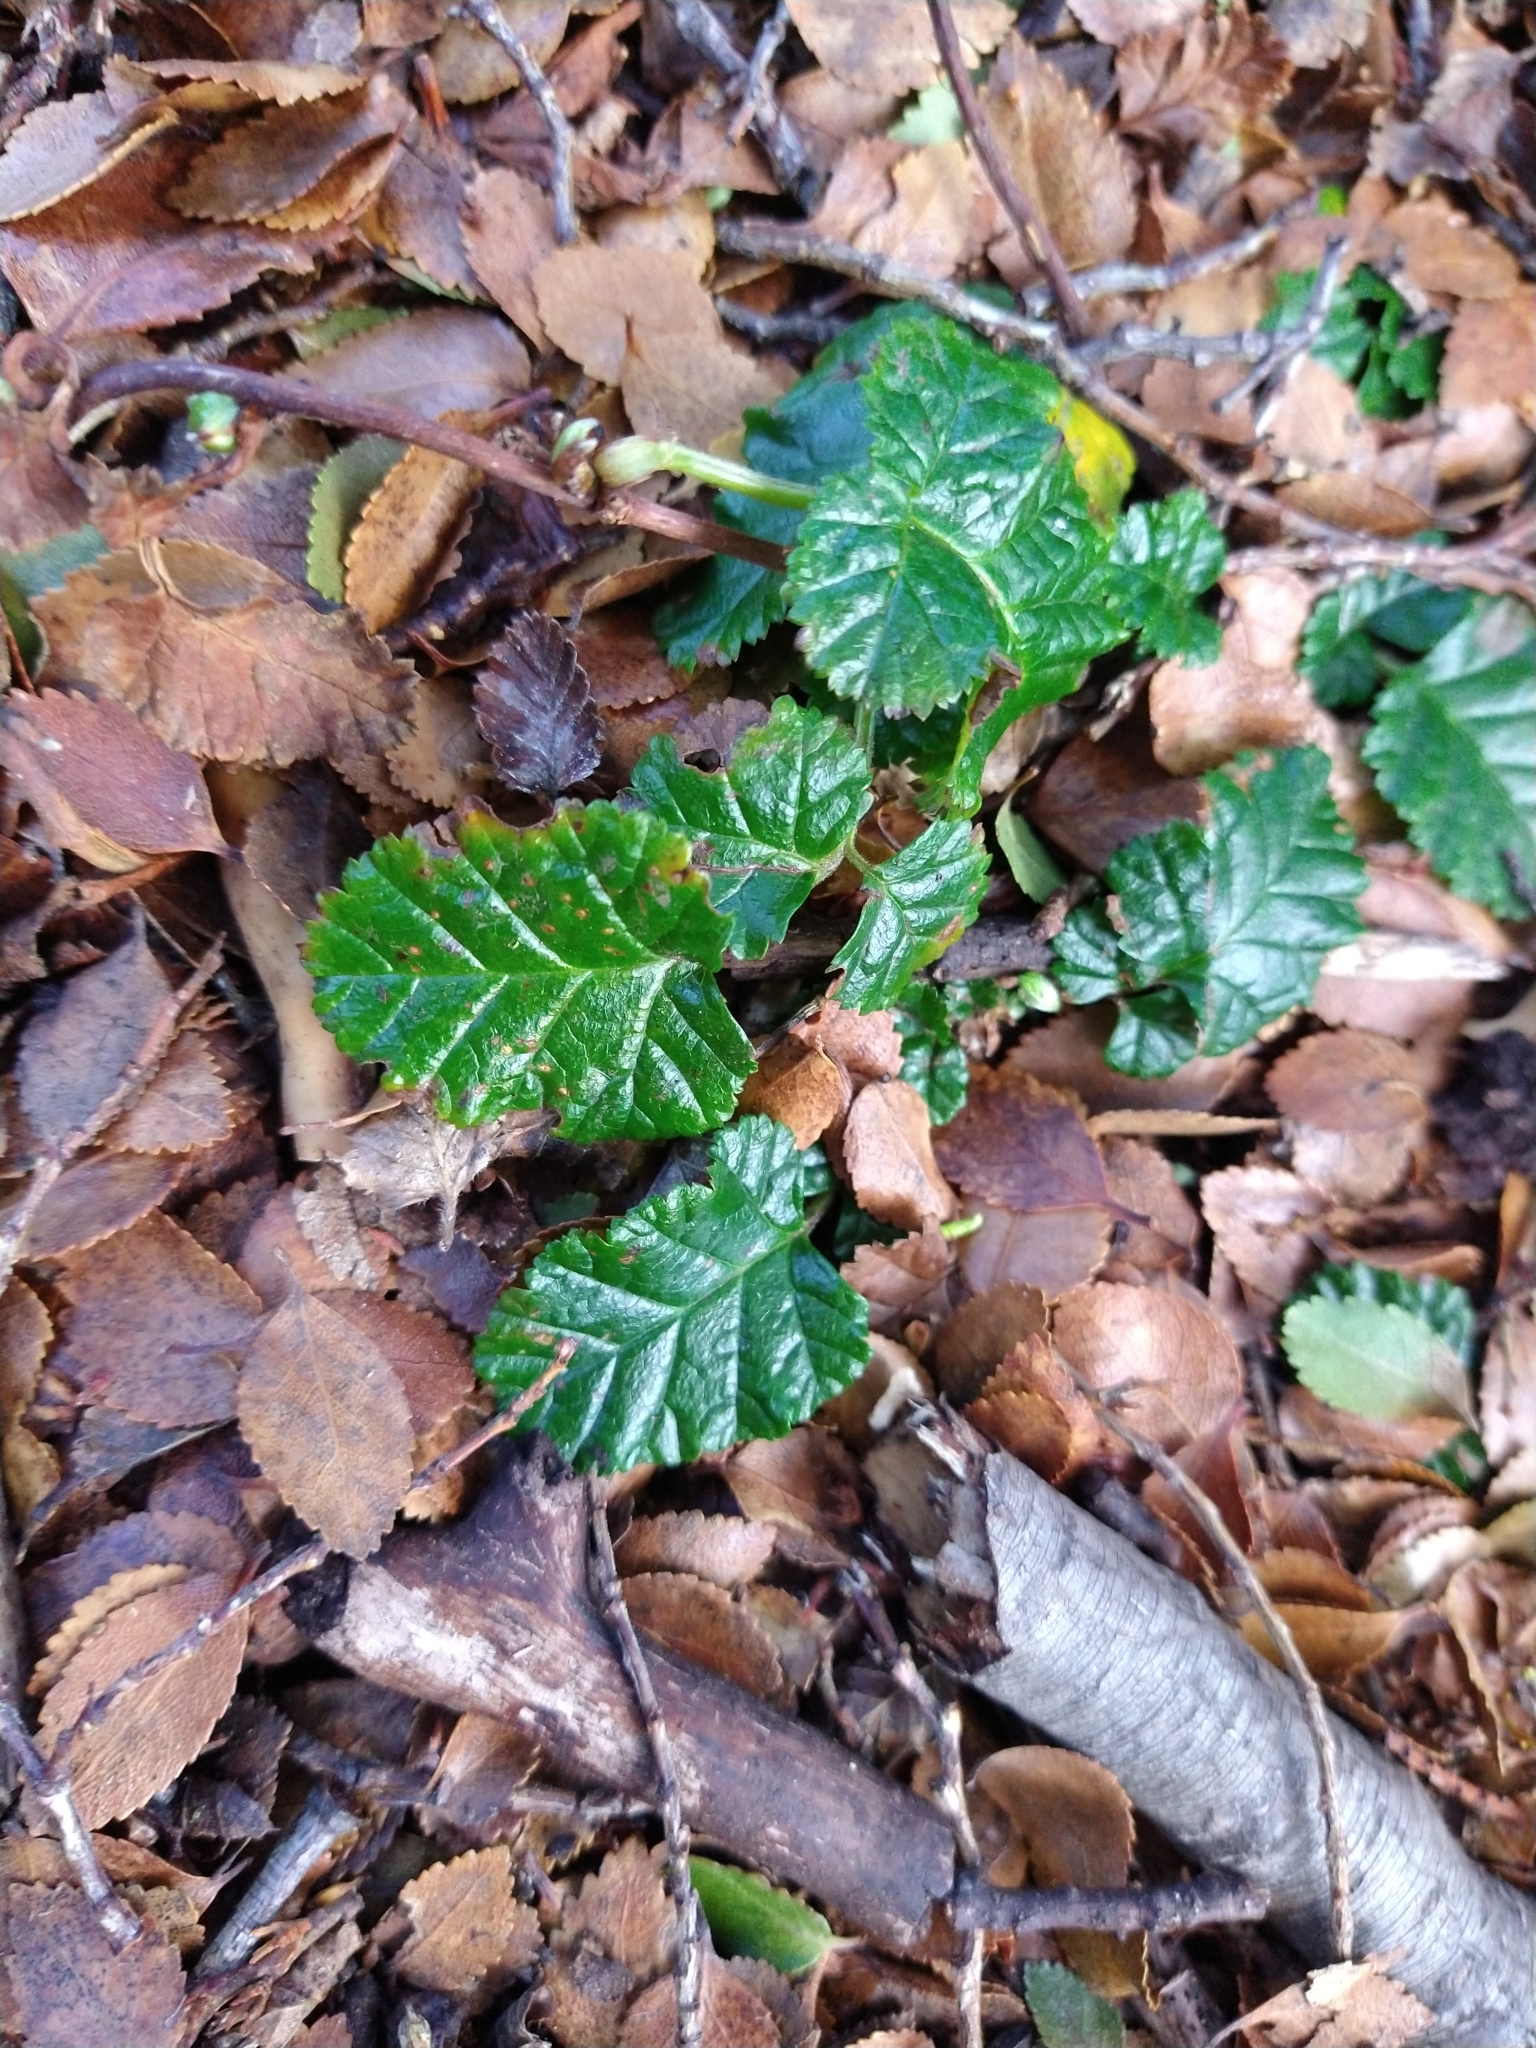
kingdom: Plantae
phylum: Tracheophyta
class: Magnoliopsida
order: Rosales
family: Rosaceae
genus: Rubus
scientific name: Rubus geoides
